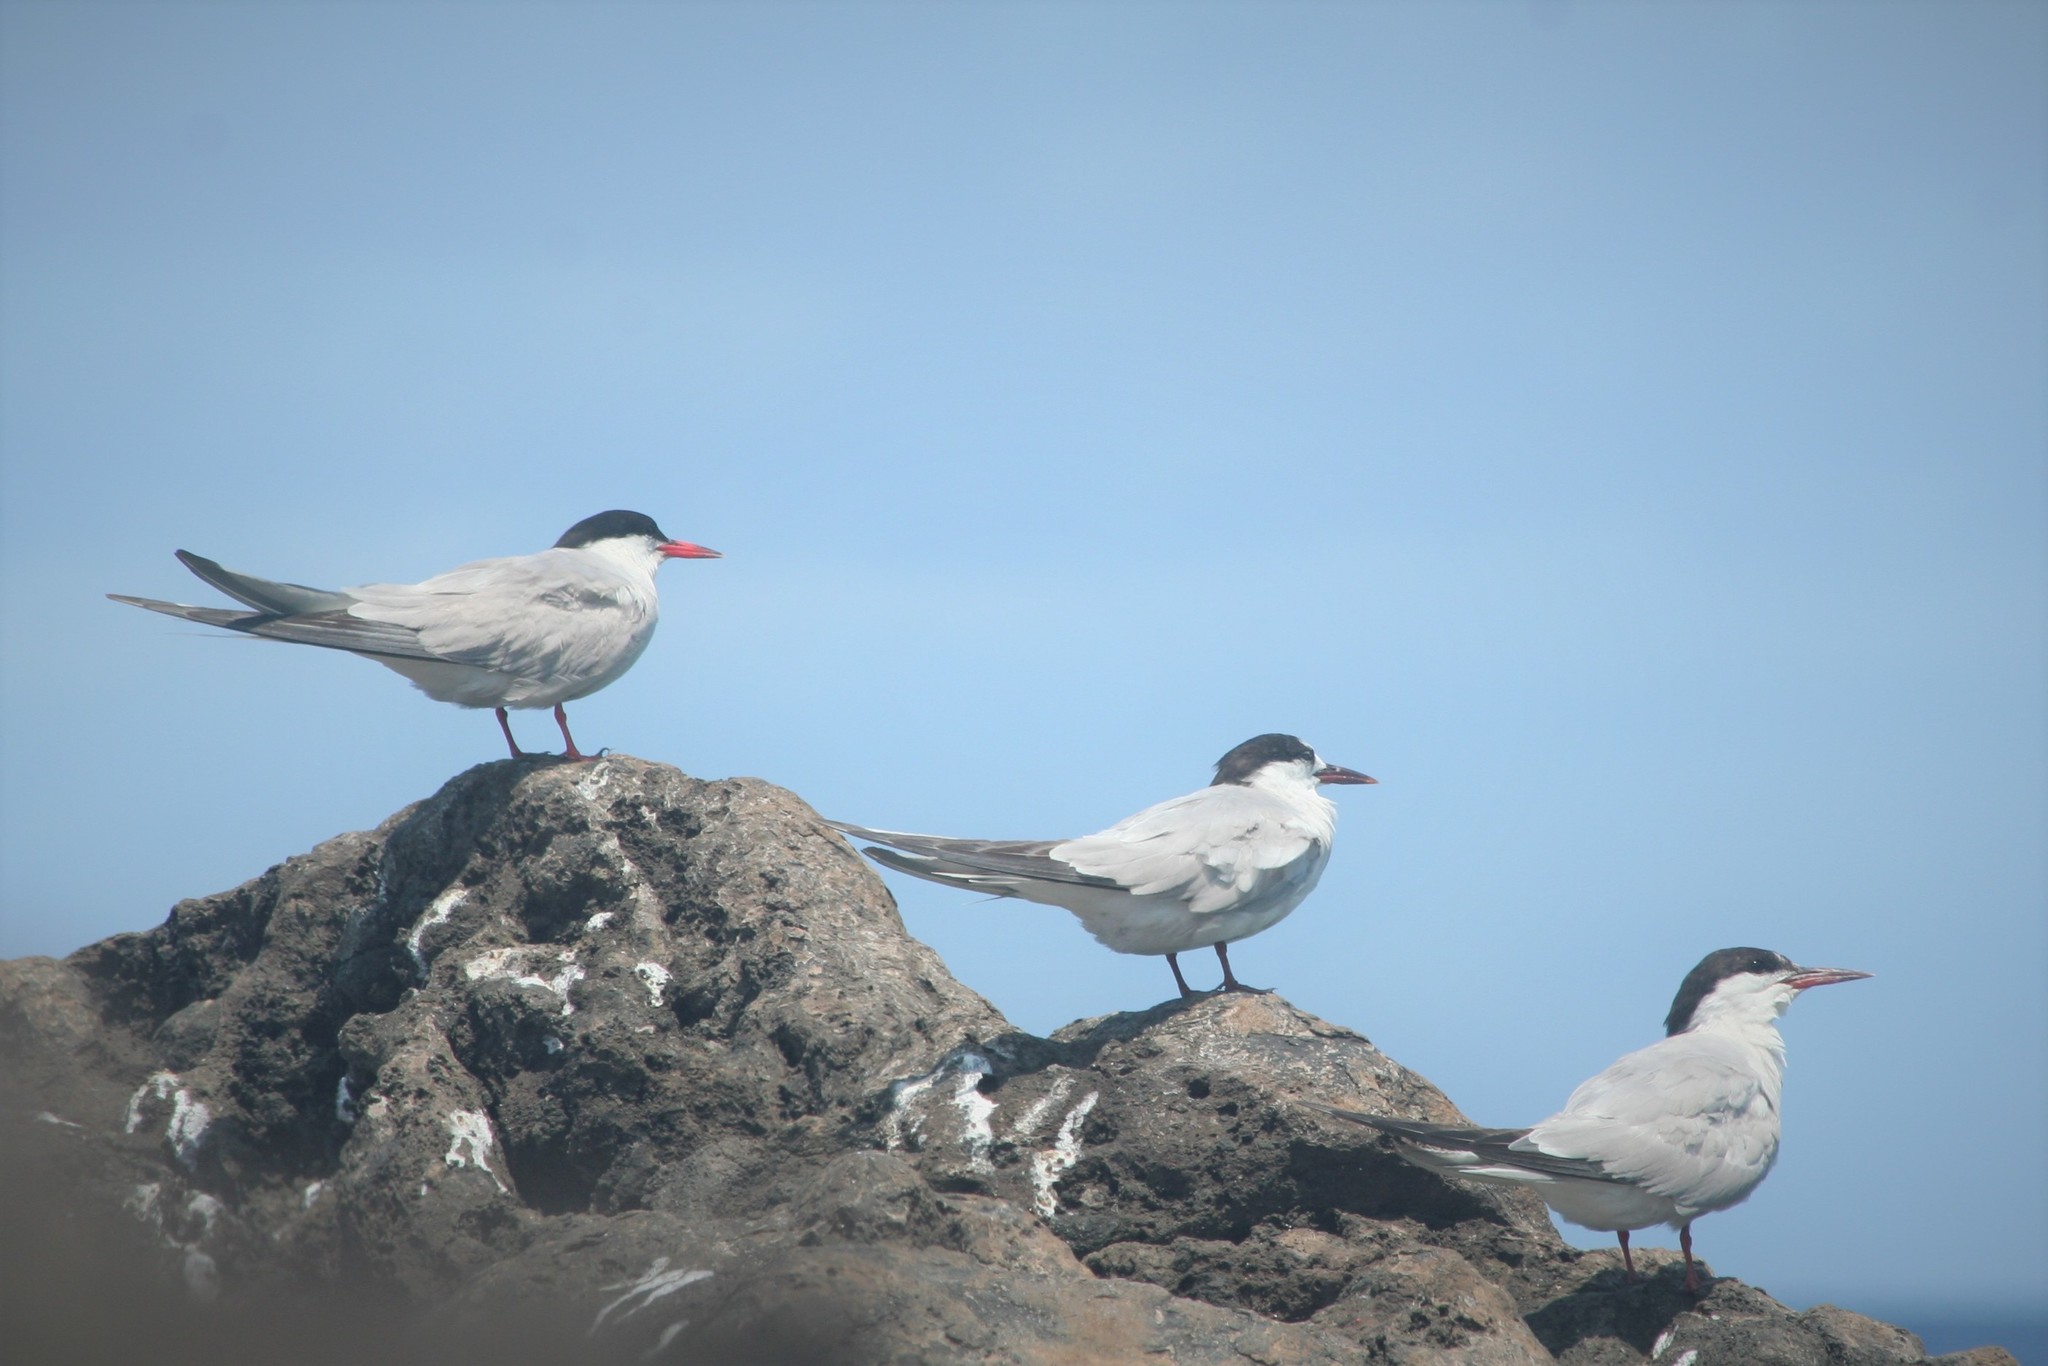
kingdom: Animalia
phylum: Chordata
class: Aves
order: Charadriiformes
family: Laridae
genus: Sterna
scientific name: Sterna hirundo
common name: Common tern
